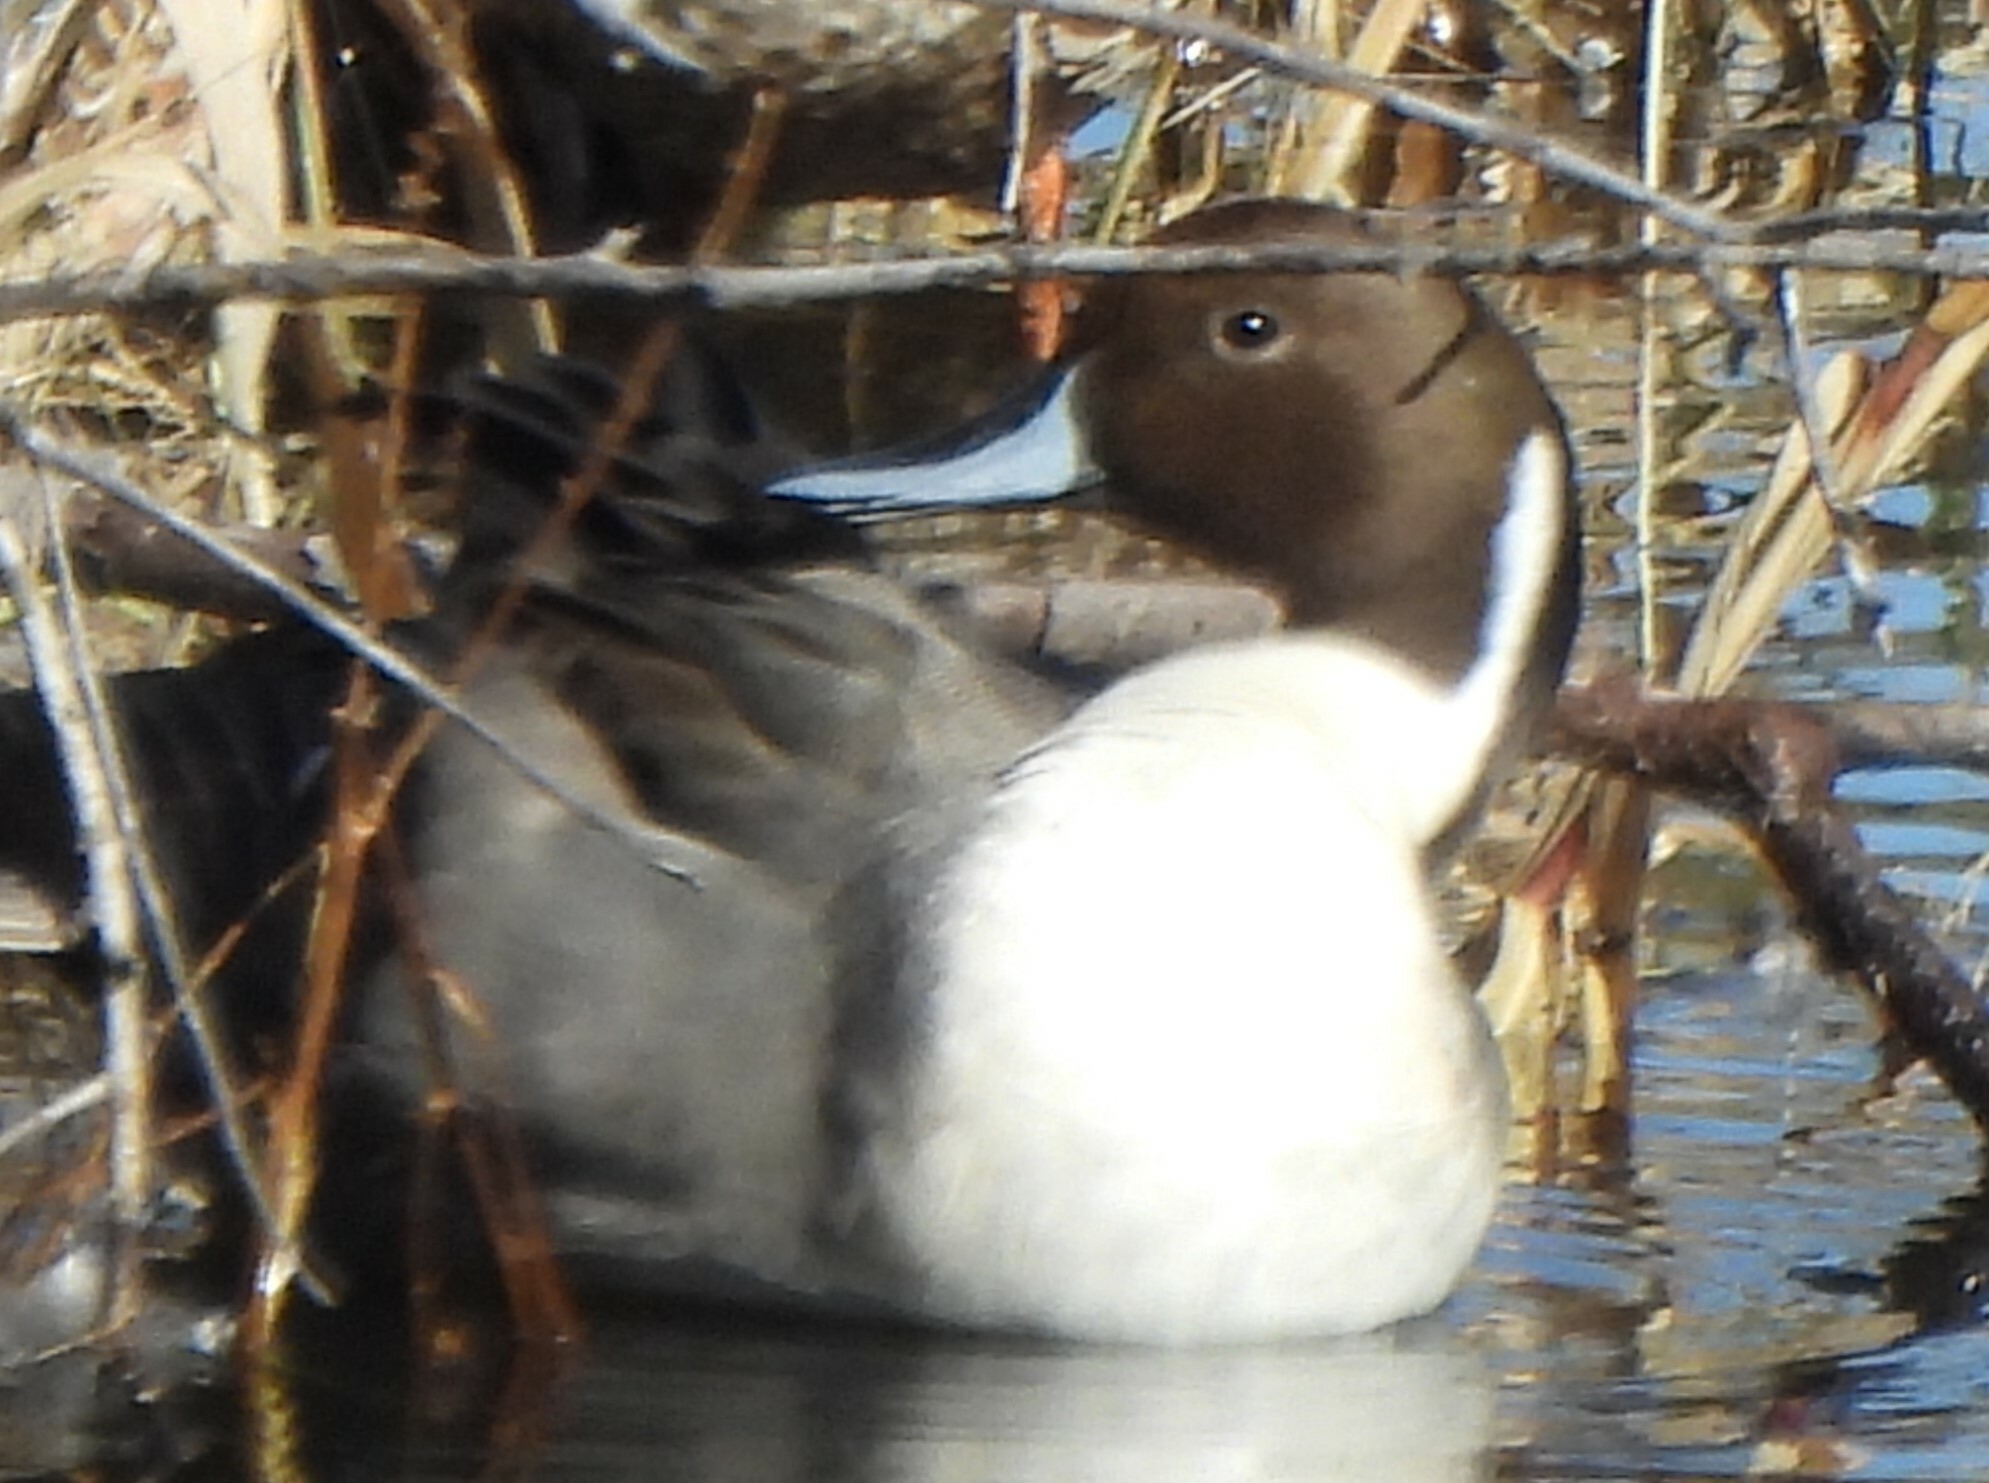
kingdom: Animalia
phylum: Chordata
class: Aves
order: Anseriformes
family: Anatidae
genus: Anas
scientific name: Anas acuta
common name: Northern pintail
